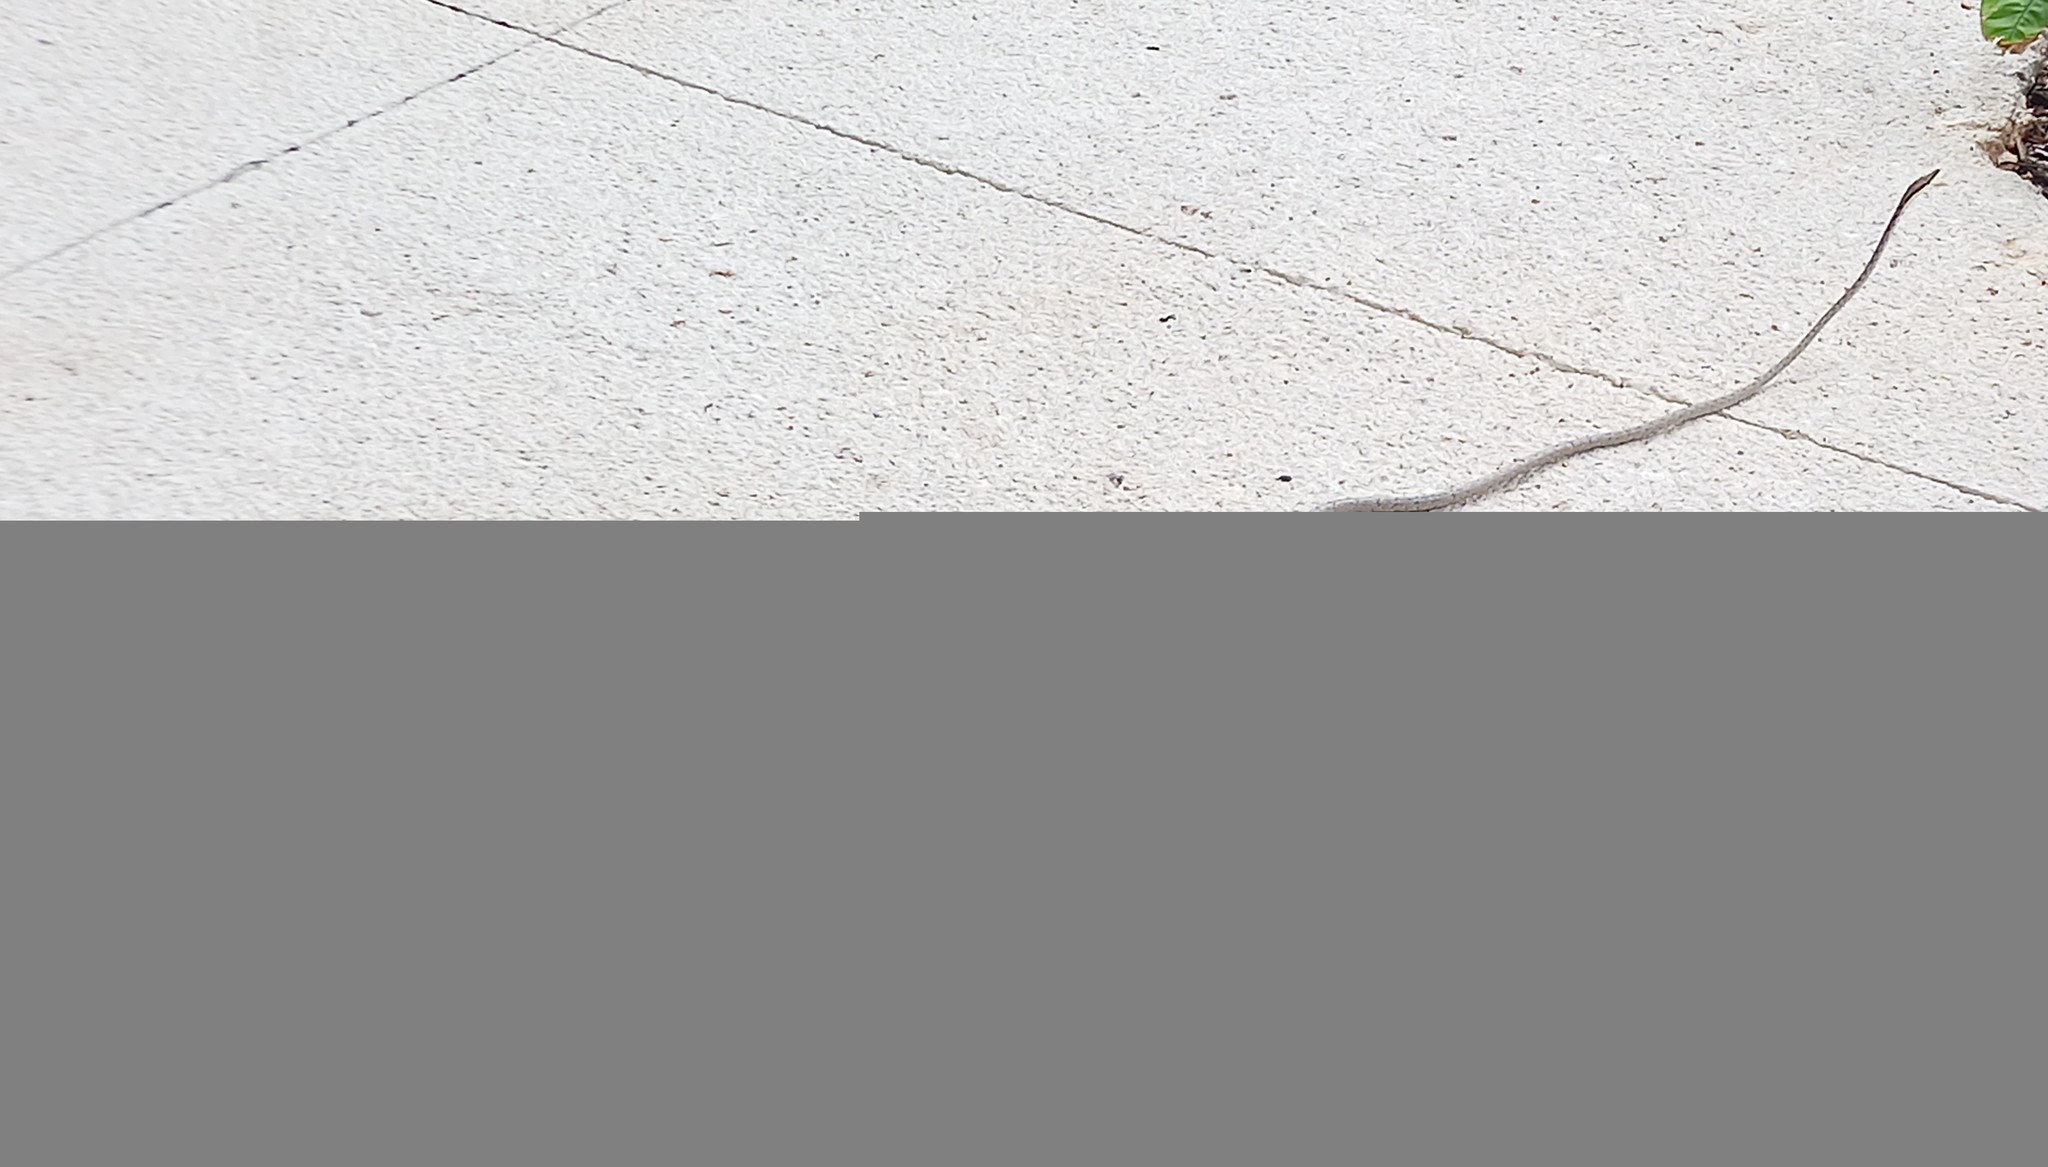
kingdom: Animalia
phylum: Chordata
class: Squamata
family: Colubridae
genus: Oxybelis
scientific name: Oxybelis potosiensis
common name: Gulf coast vine snake
